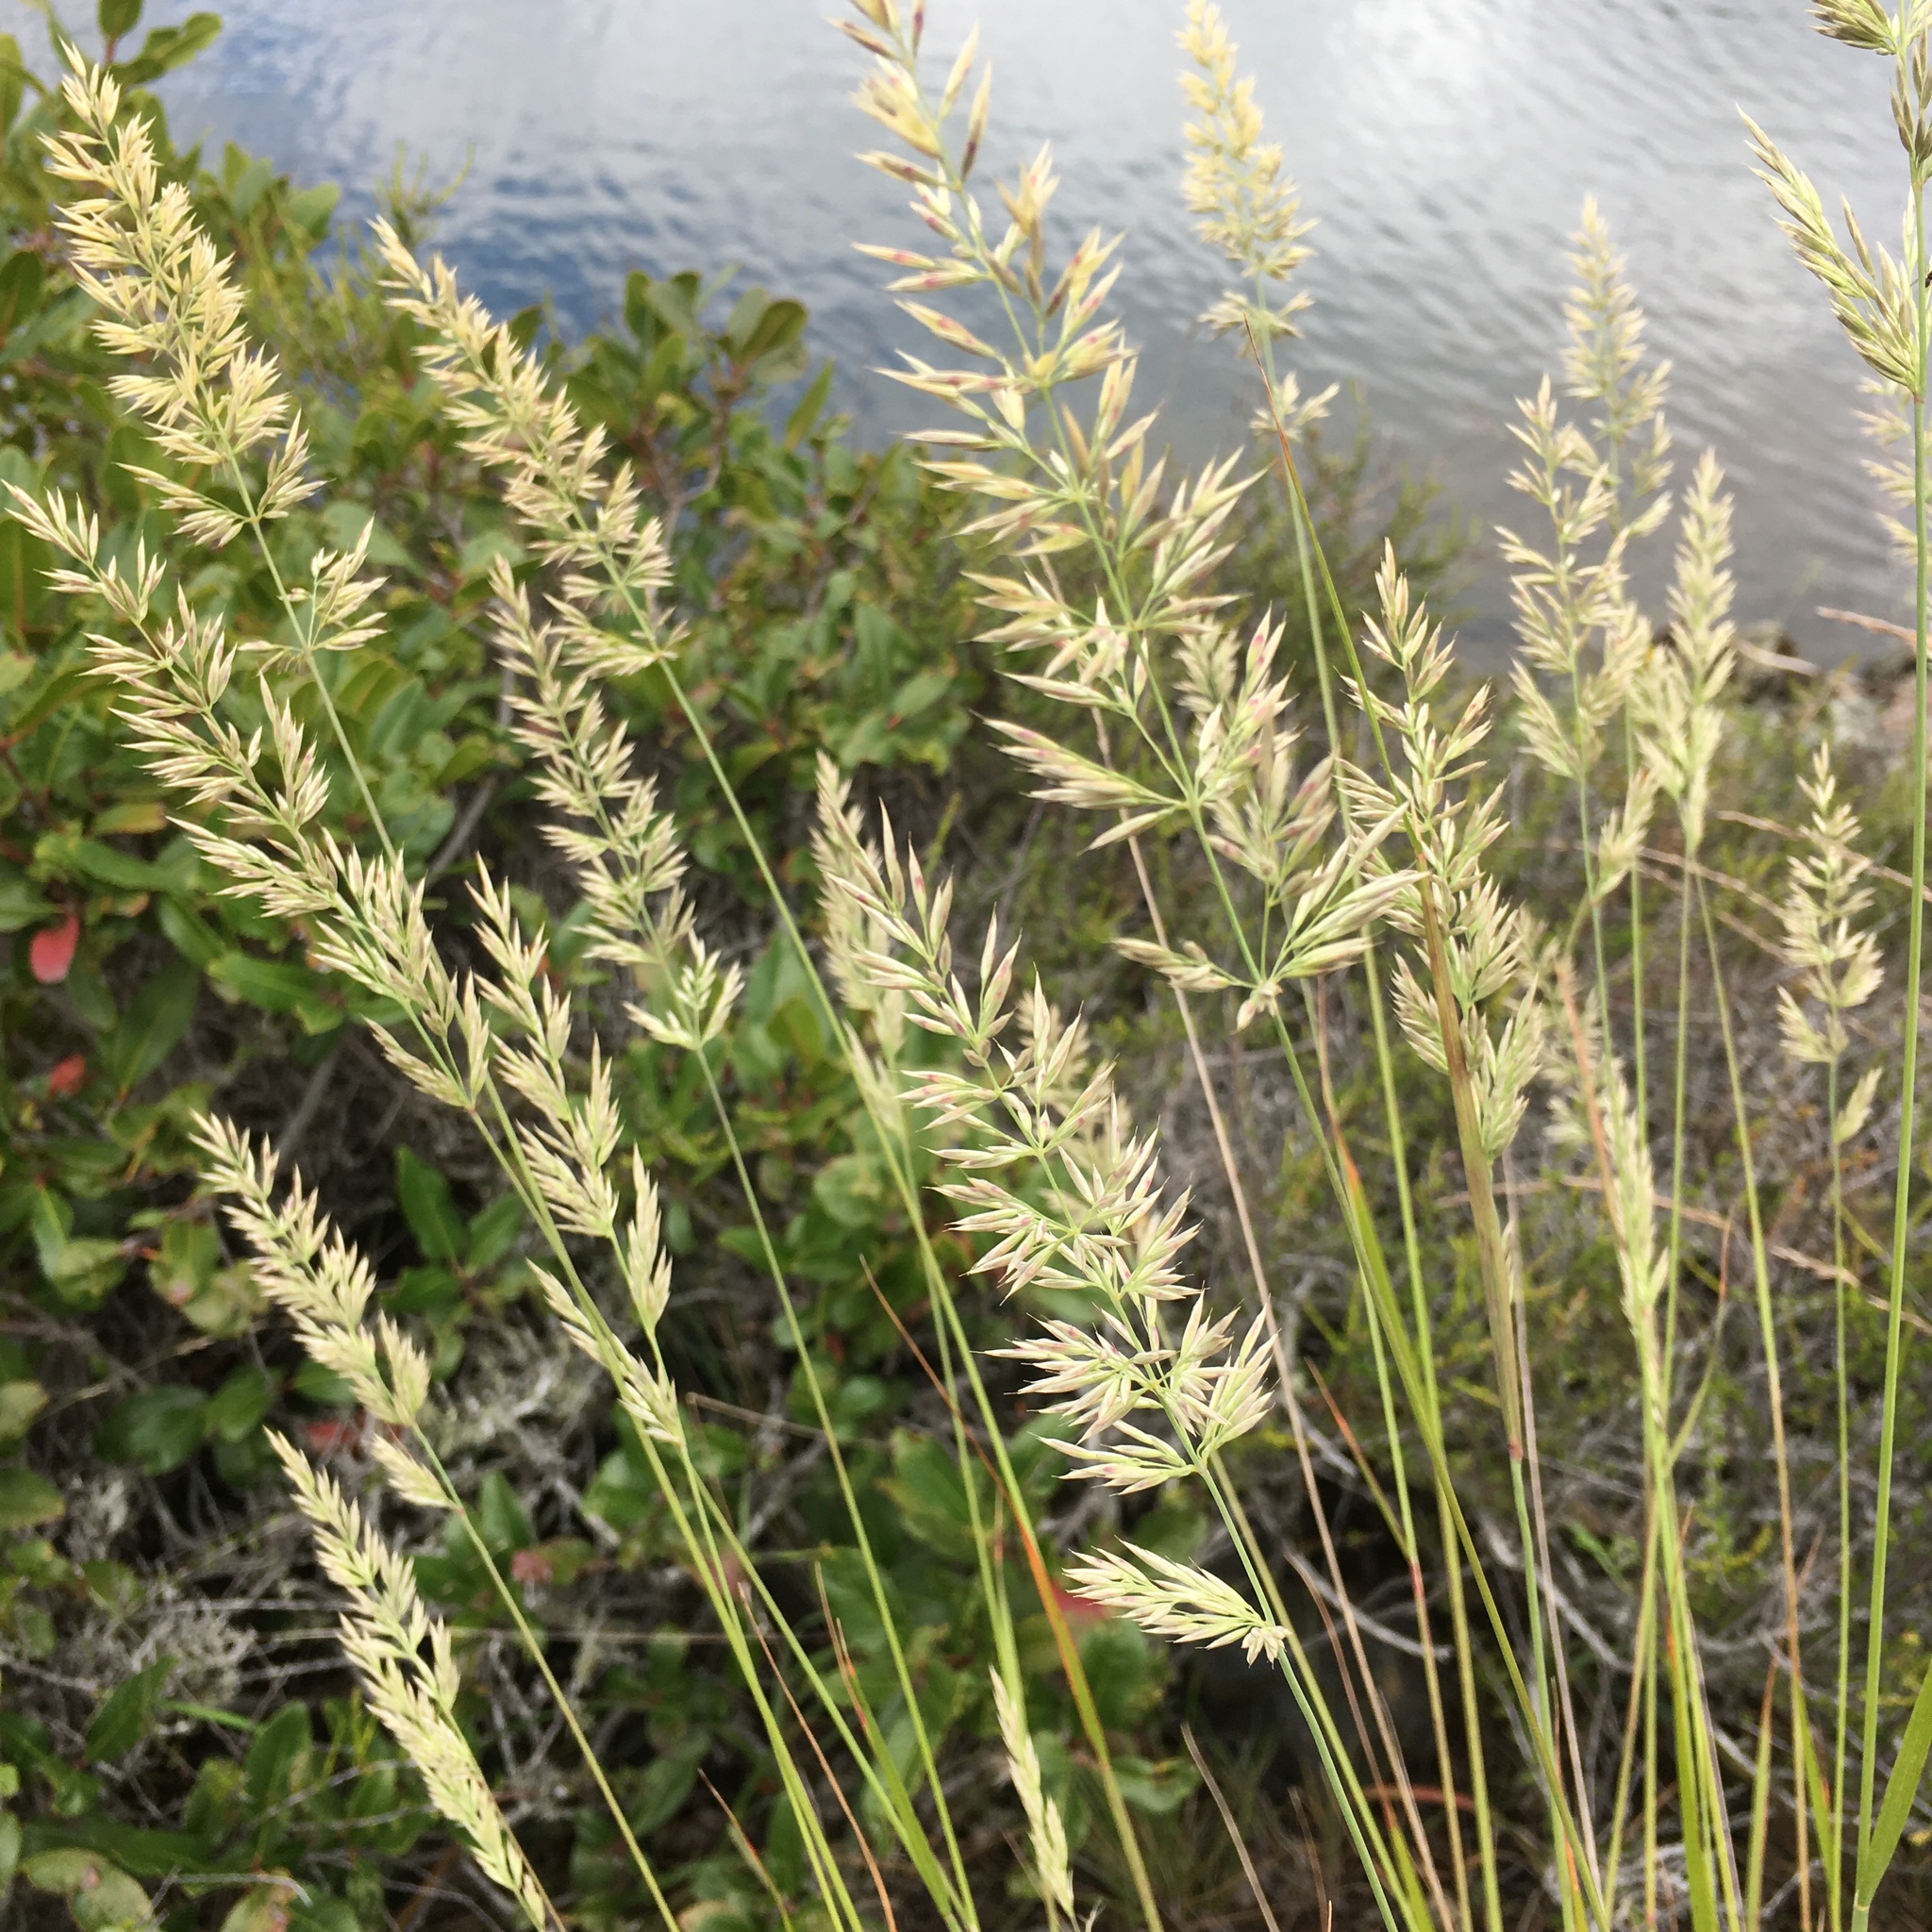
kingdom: Plantae
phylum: Tracheophyta
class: Liliopsida
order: Poales
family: Poaceae
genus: Calamagrostis
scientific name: Calamagrostis ophitidis
